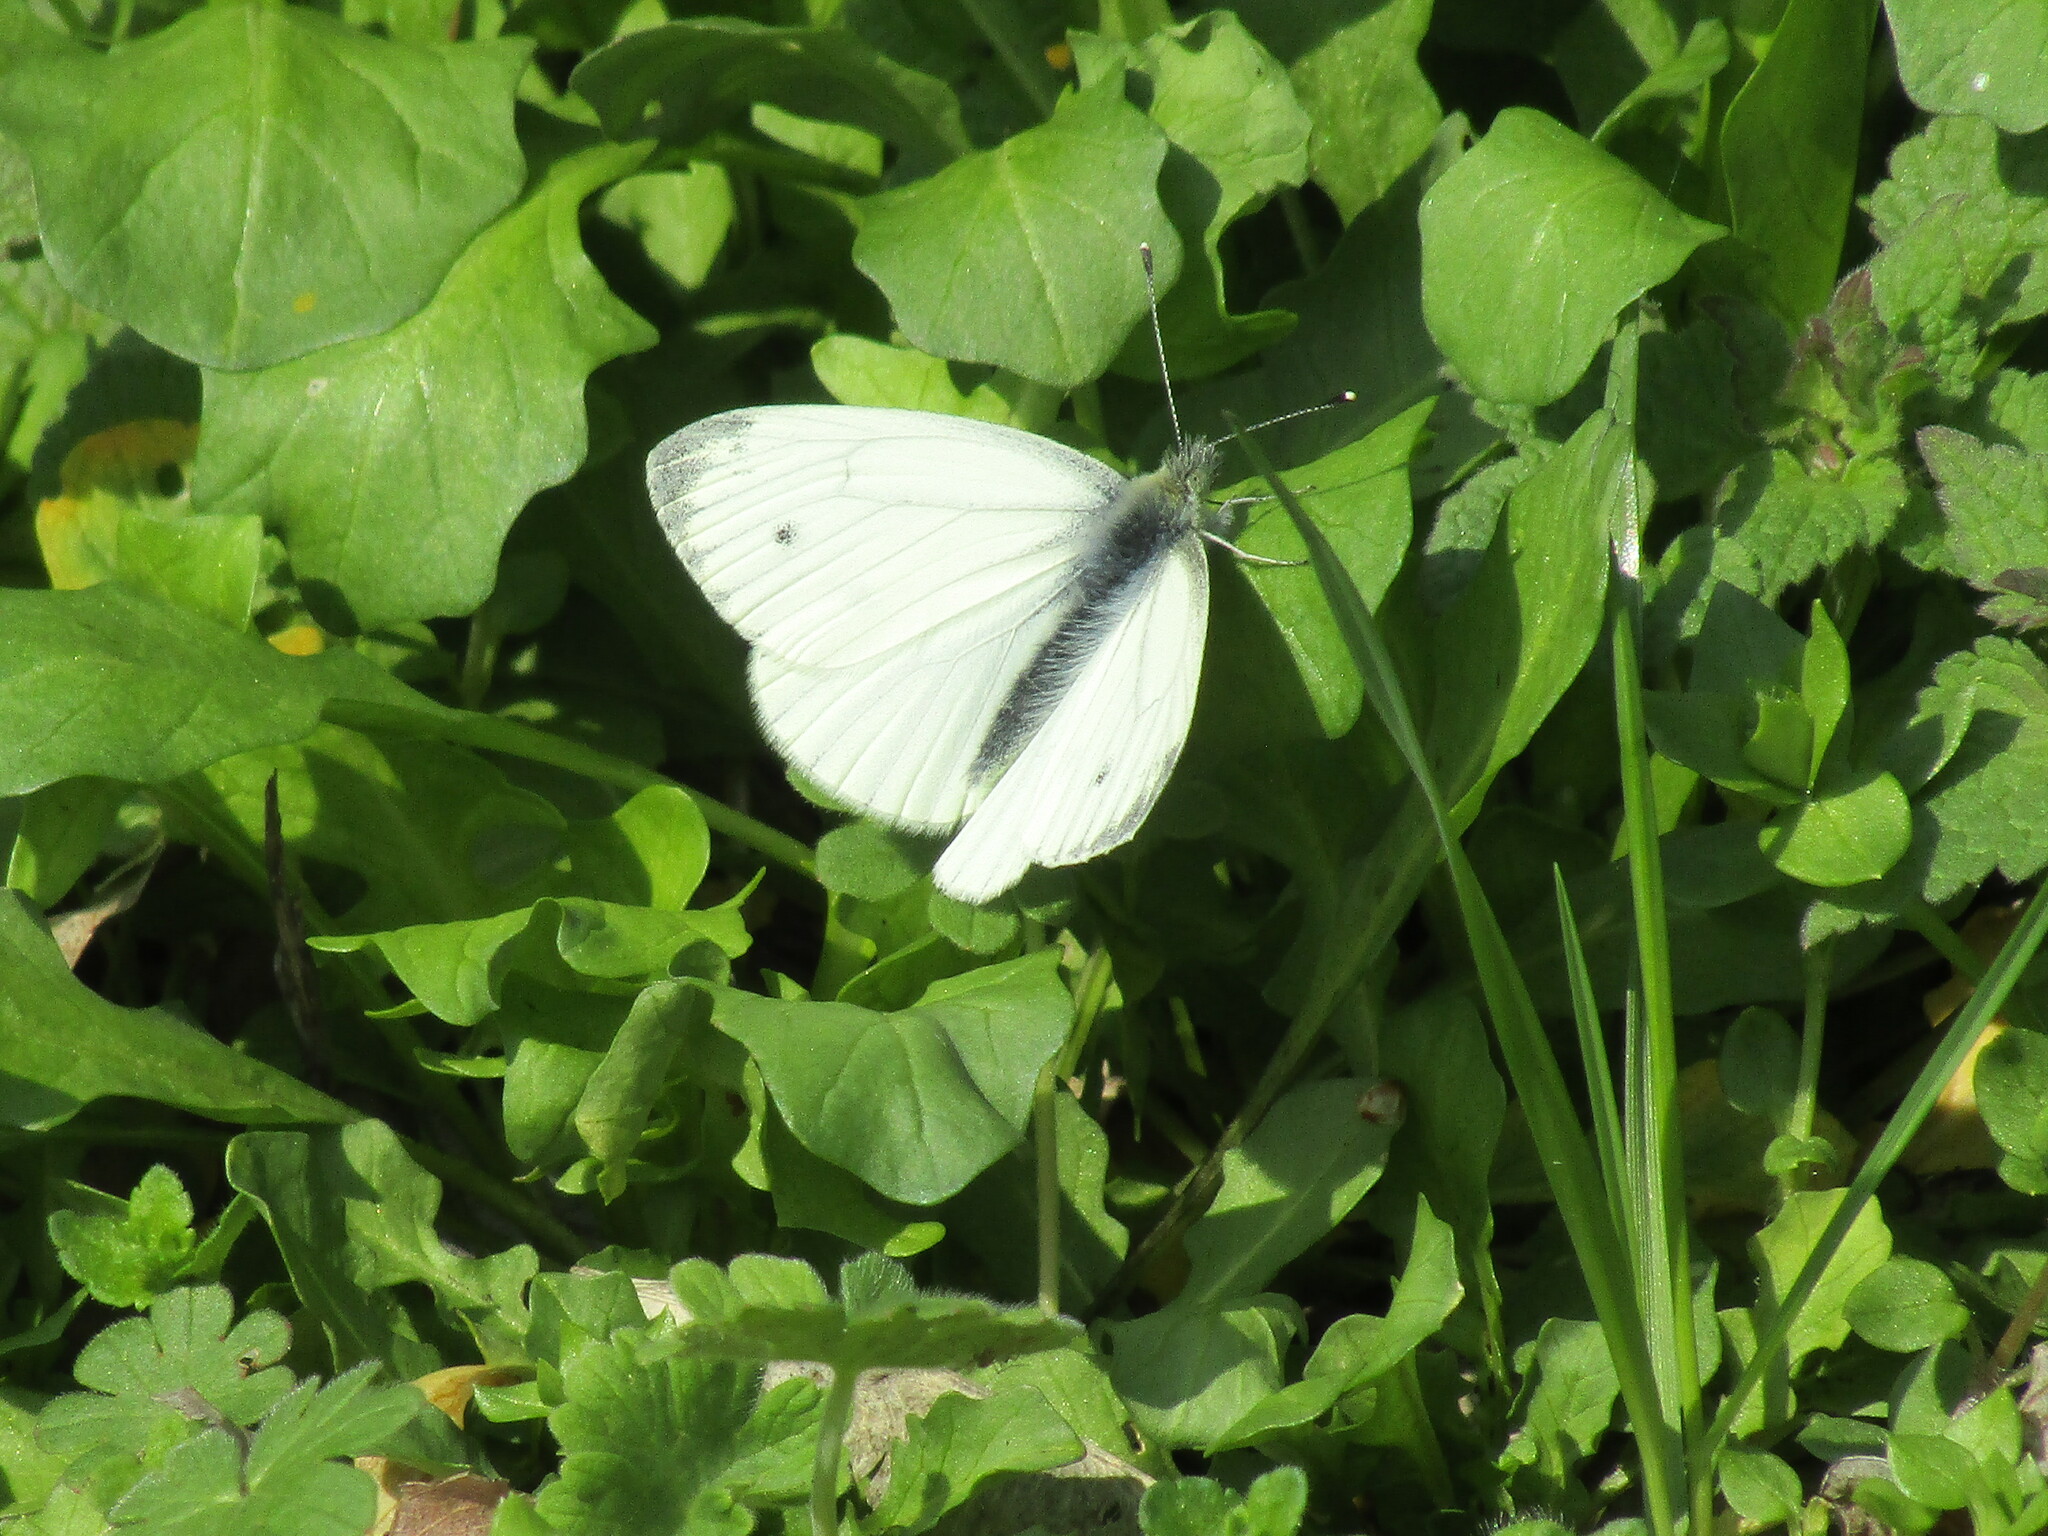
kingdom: Animalia
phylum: Arthropoda
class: Insecta
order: Lepidoptera
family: Pieridae
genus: Pieris
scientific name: Pieris napi
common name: Green-veined white
